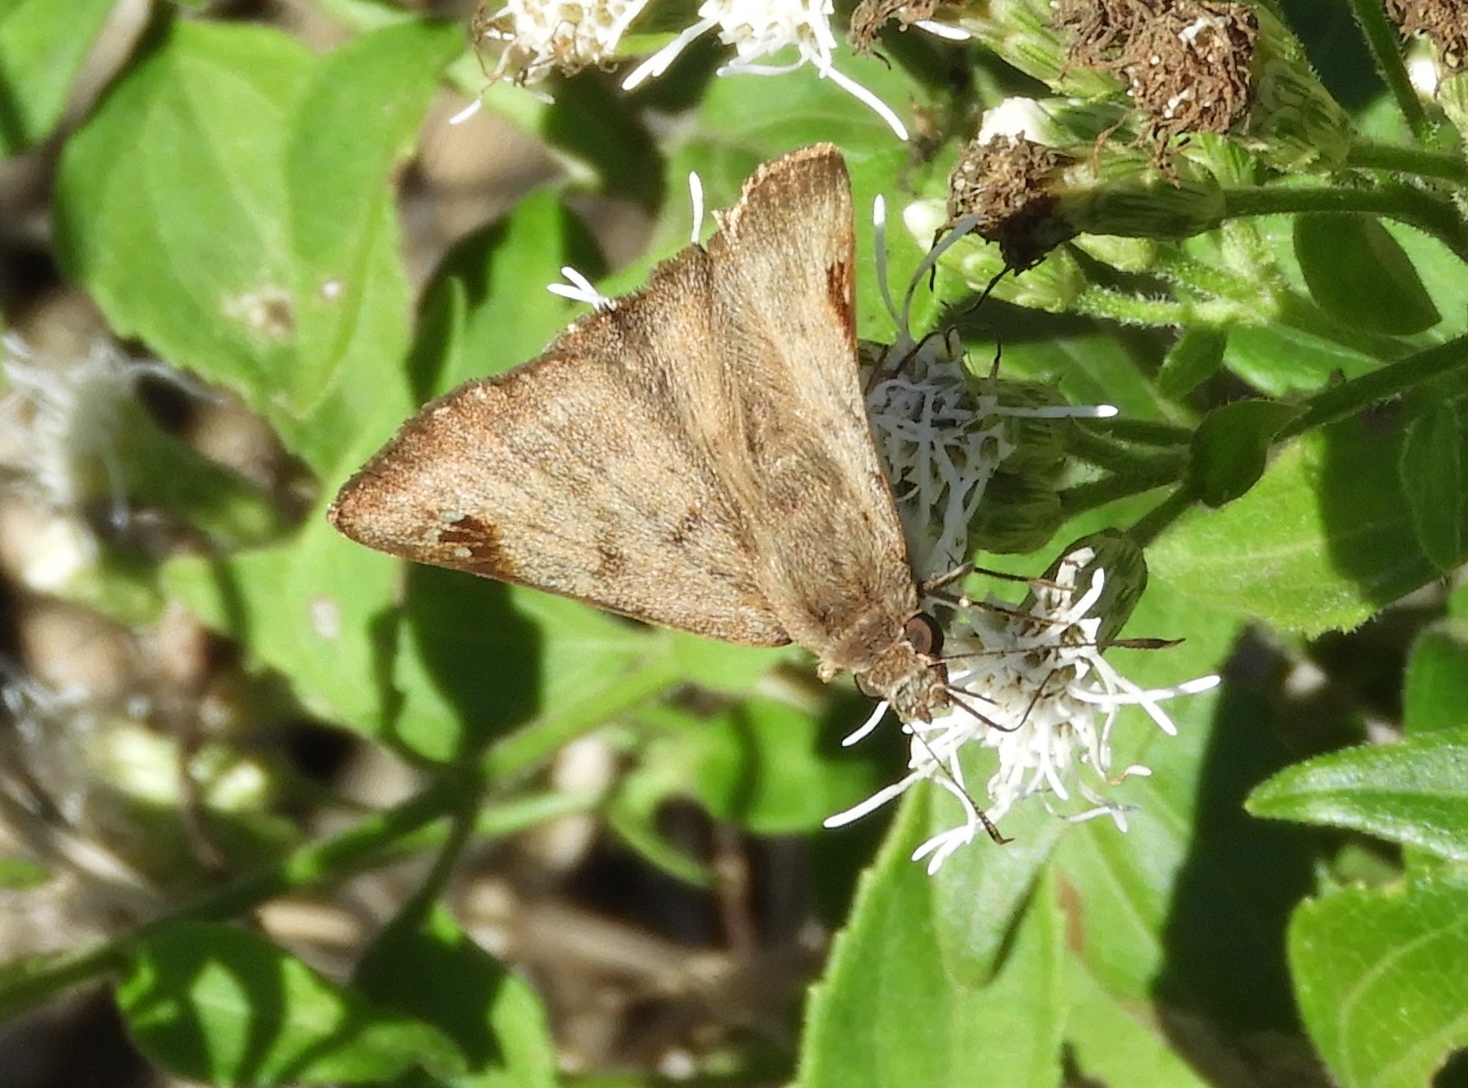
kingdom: Animalia
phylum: Arthropoda
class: Insecta
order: Lepidoptera
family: Hesperiidae
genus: Arteurotia
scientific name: Arteurotia tractipennis
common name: Starred skipper
